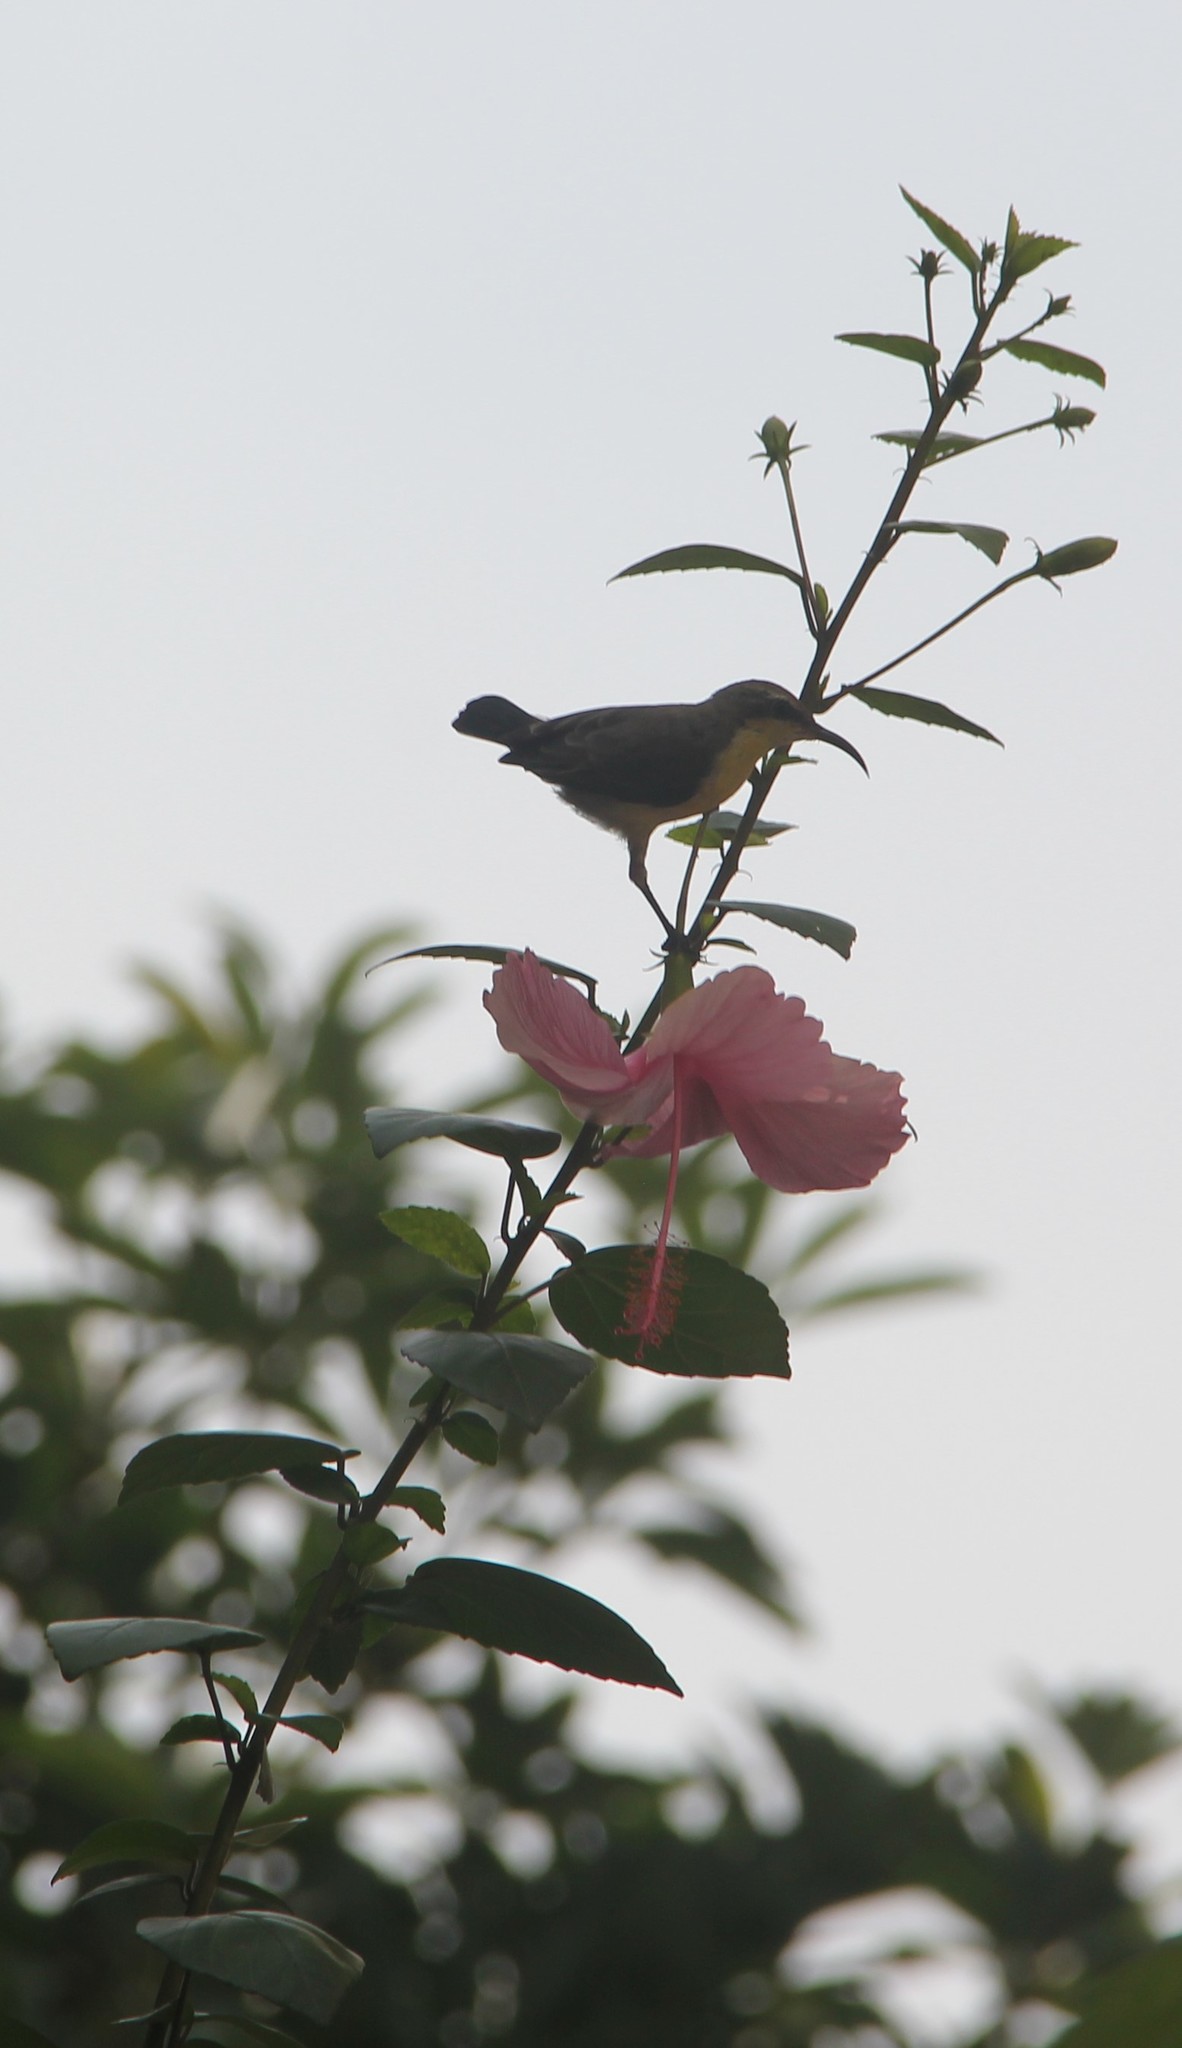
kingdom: Animalia
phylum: Chordata
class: Aves
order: Passeriformes
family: Nectariniidae
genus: Cinnyris
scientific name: Cinnyris lotenius
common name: Loten's sunbird
